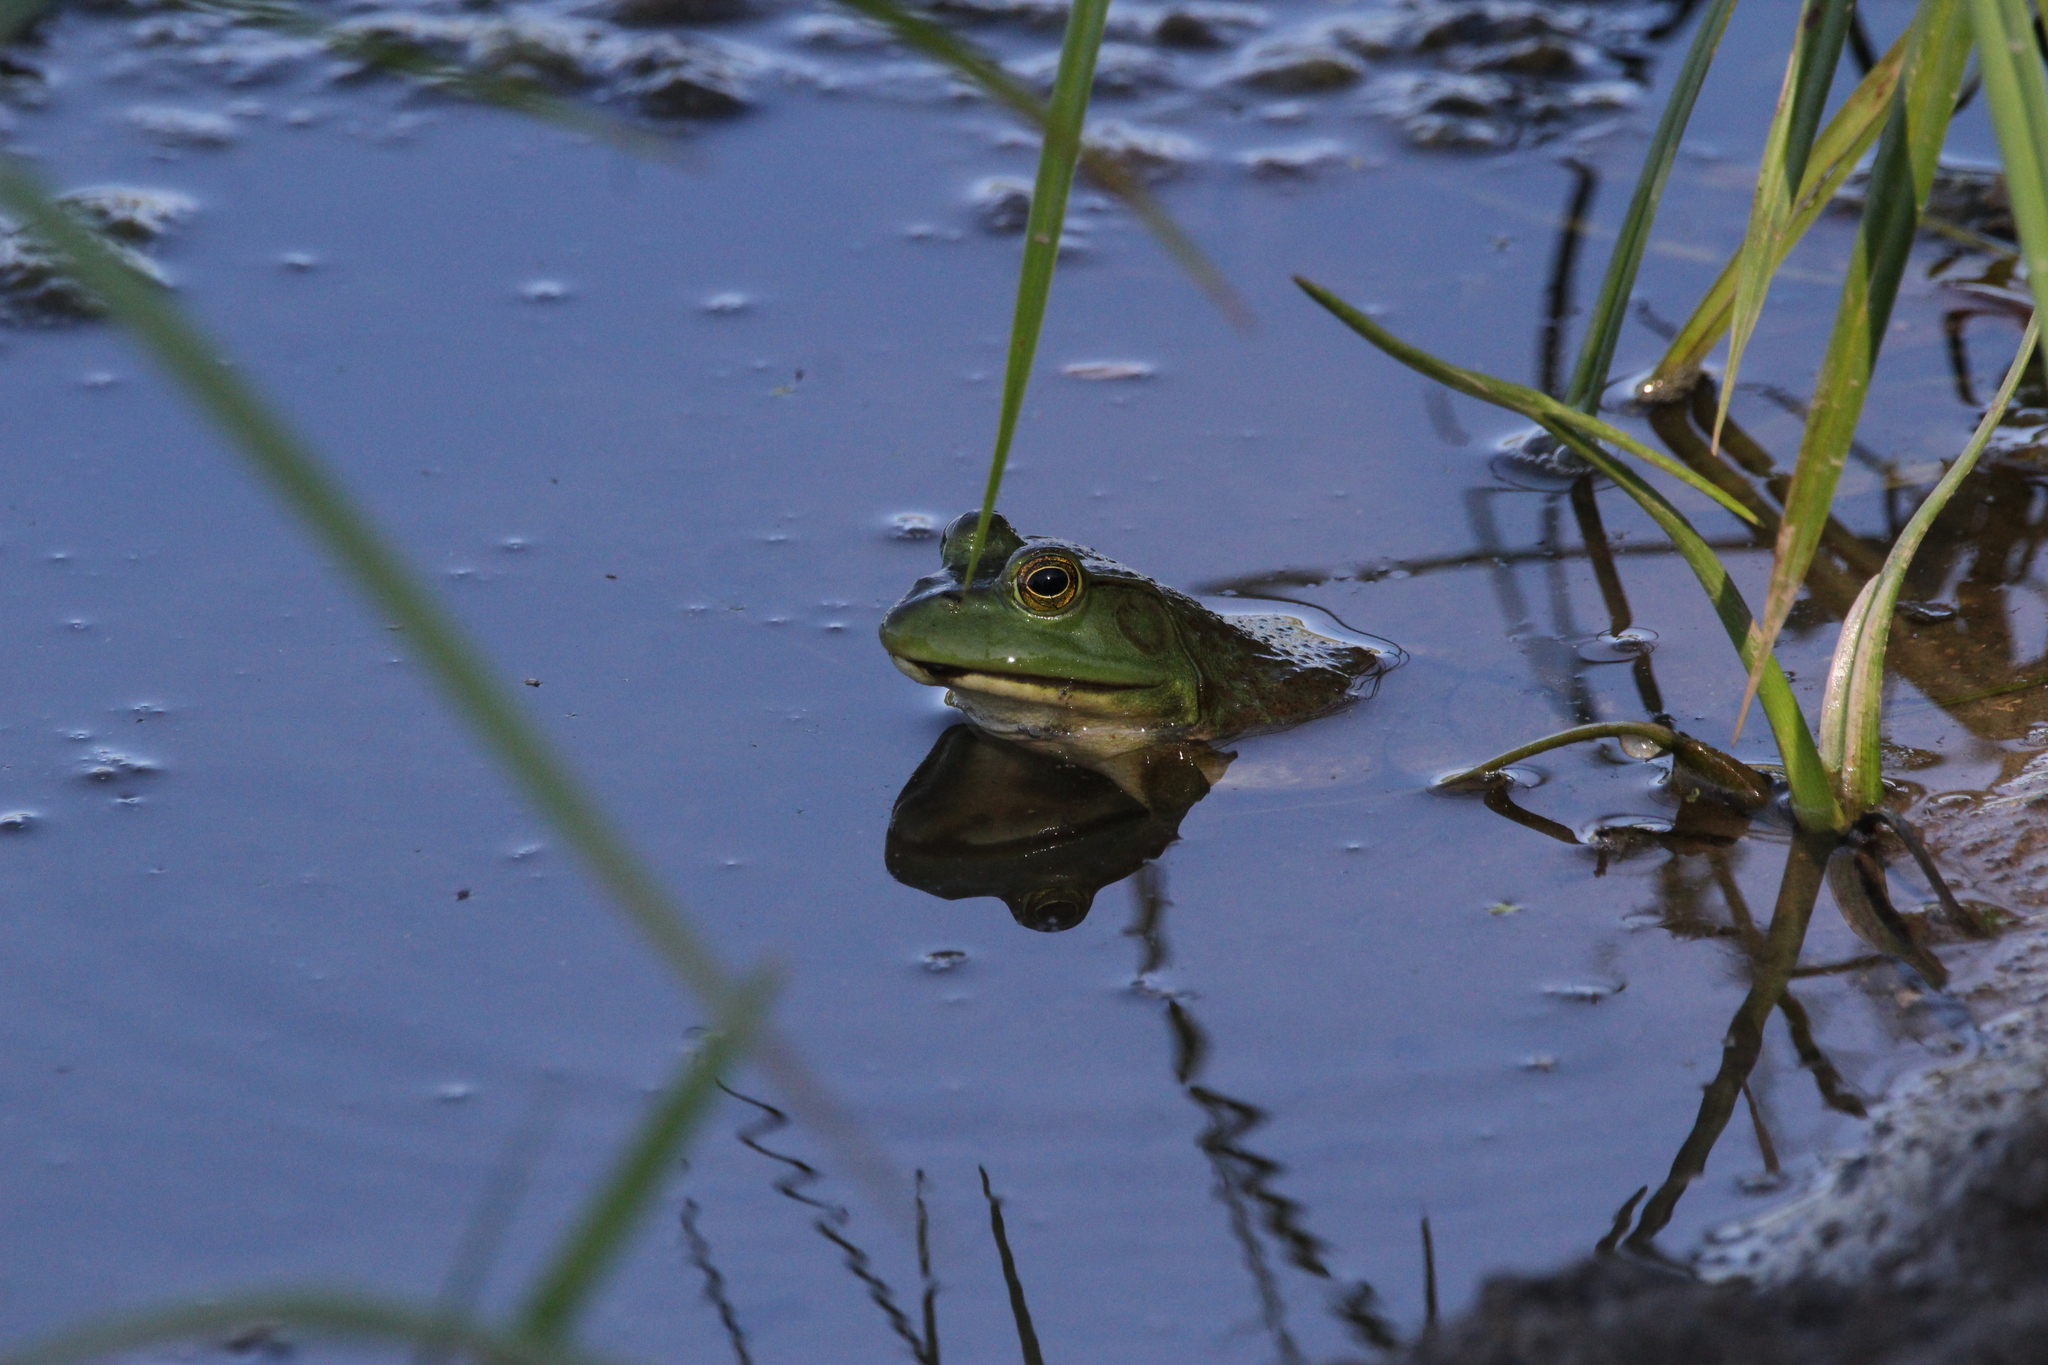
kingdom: Animalia
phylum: Chordata
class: Amphibia
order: Anura
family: Ranidae
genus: Lithobates
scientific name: Lithobates catesbeianus
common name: American bullfrog
